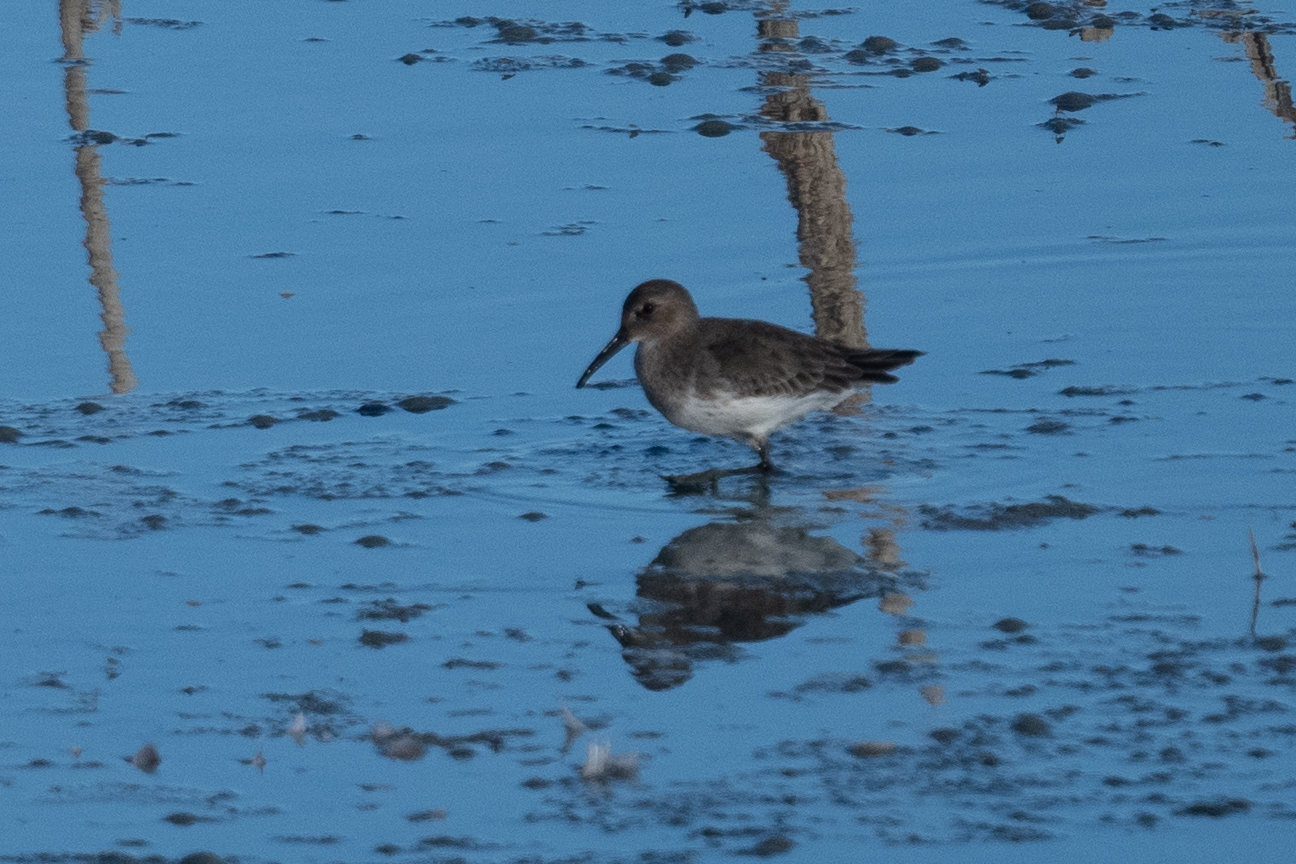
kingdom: Animalia
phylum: Chordata
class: Aves
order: Charadriiformes
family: Scolopacidae
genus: Calidris
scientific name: Calidris alpina
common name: Dunlin
